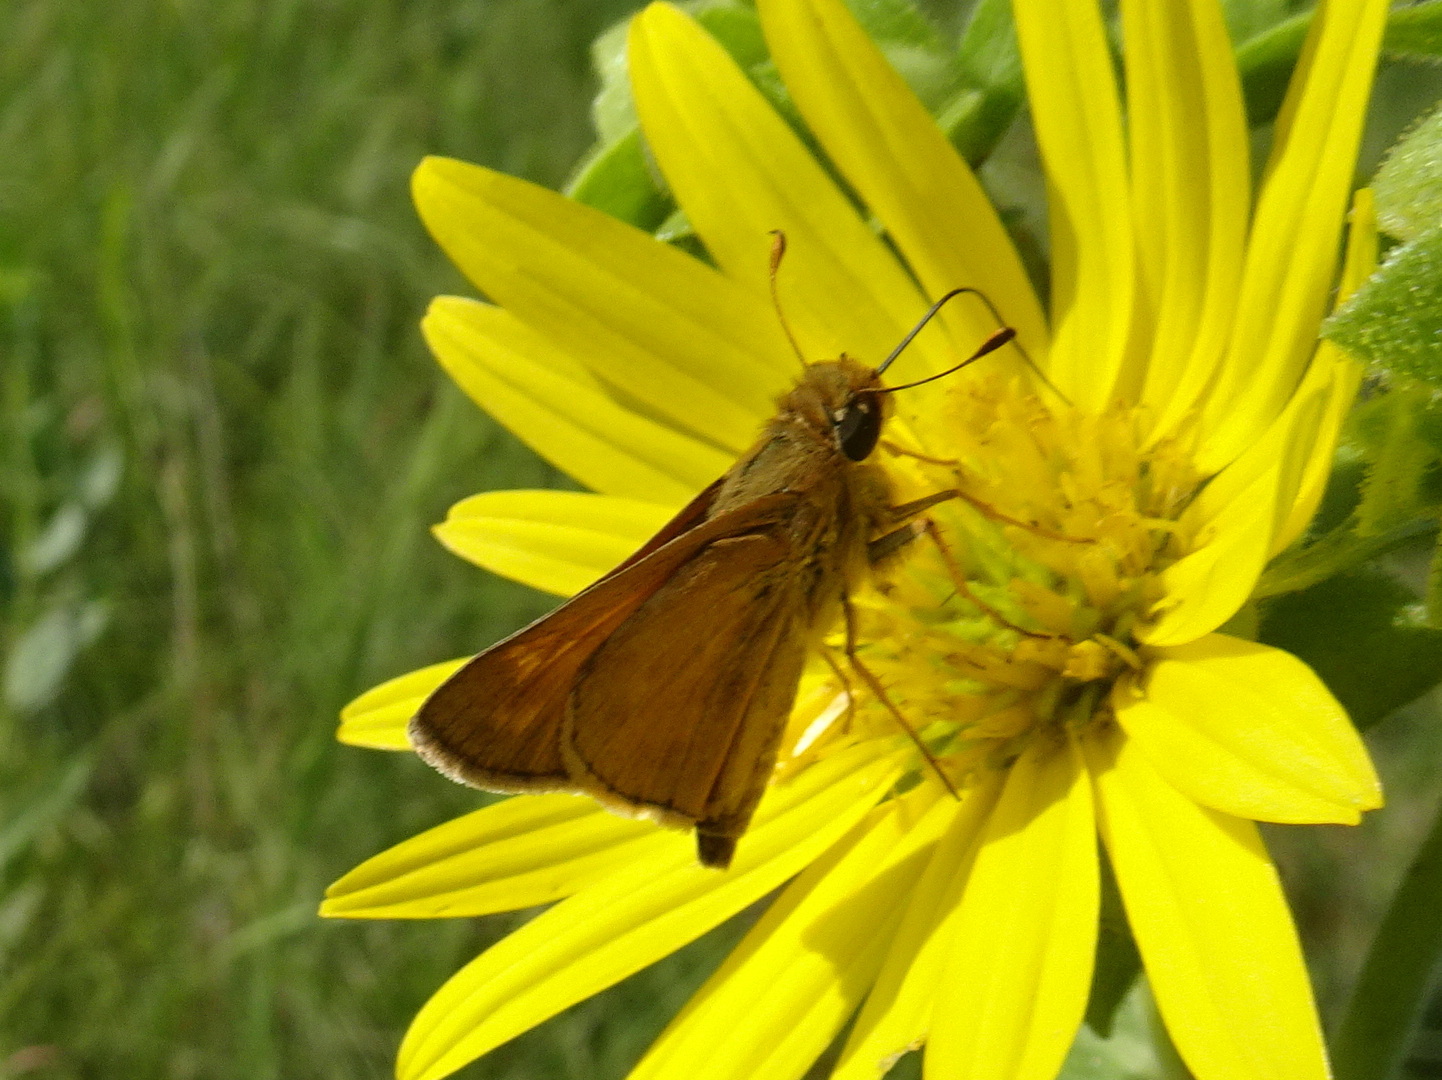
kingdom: Animalia
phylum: Arthropoda
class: Insecta
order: Lepidoptera
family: Hesperiidae
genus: Atalopedes
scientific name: Atalopedes
